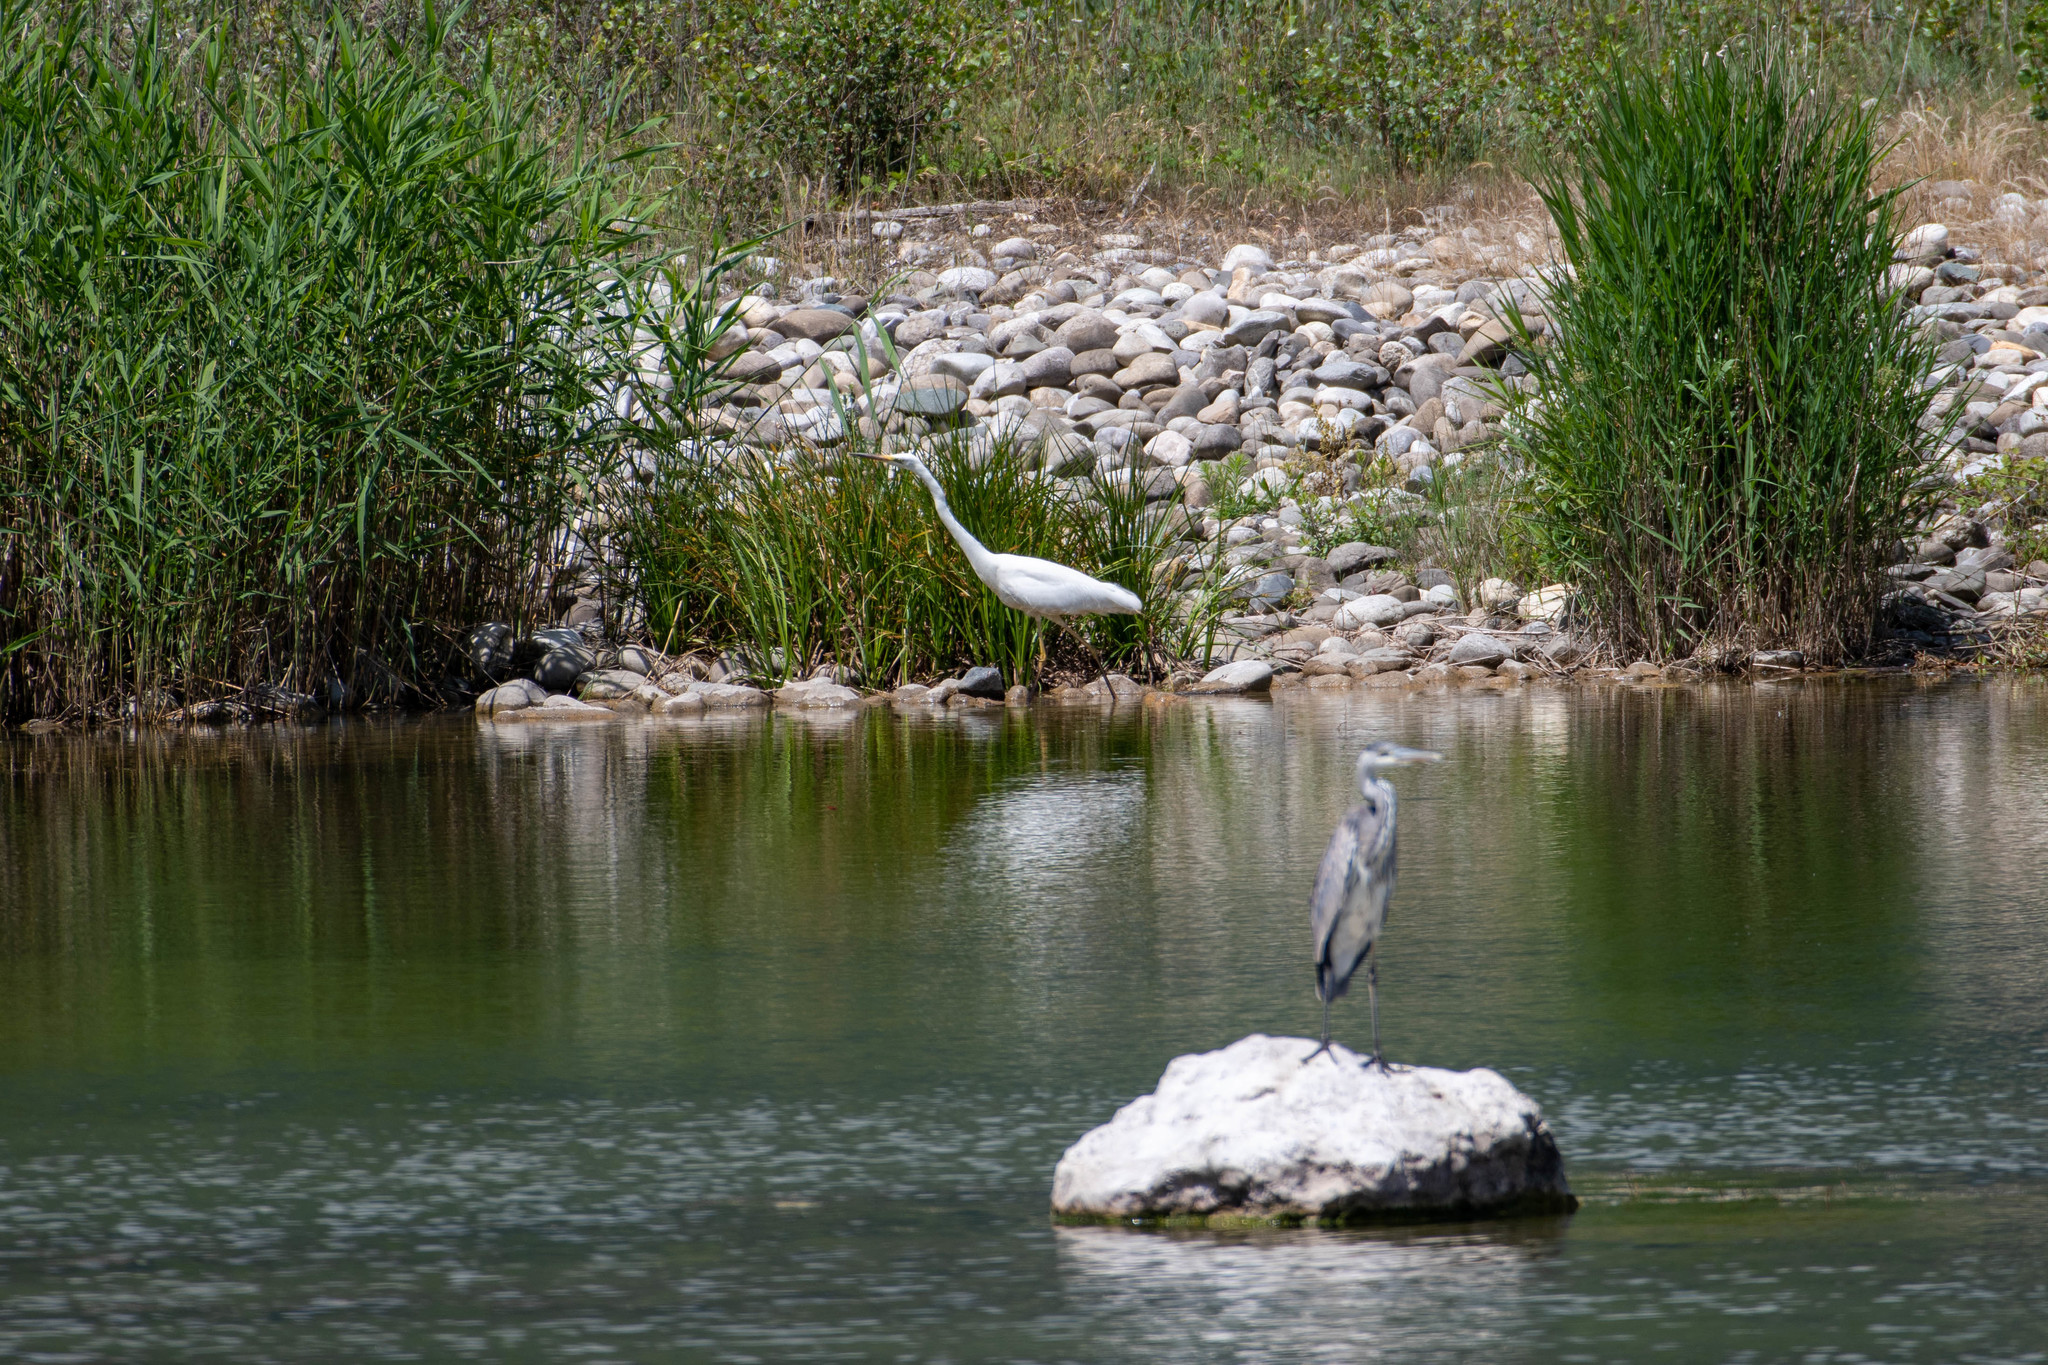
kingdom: Animalia
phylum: Chordata
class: Aves
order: Pelecaniformes
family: Ardeidae
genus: Ardea
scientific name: Ardea alba
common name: Great egret
